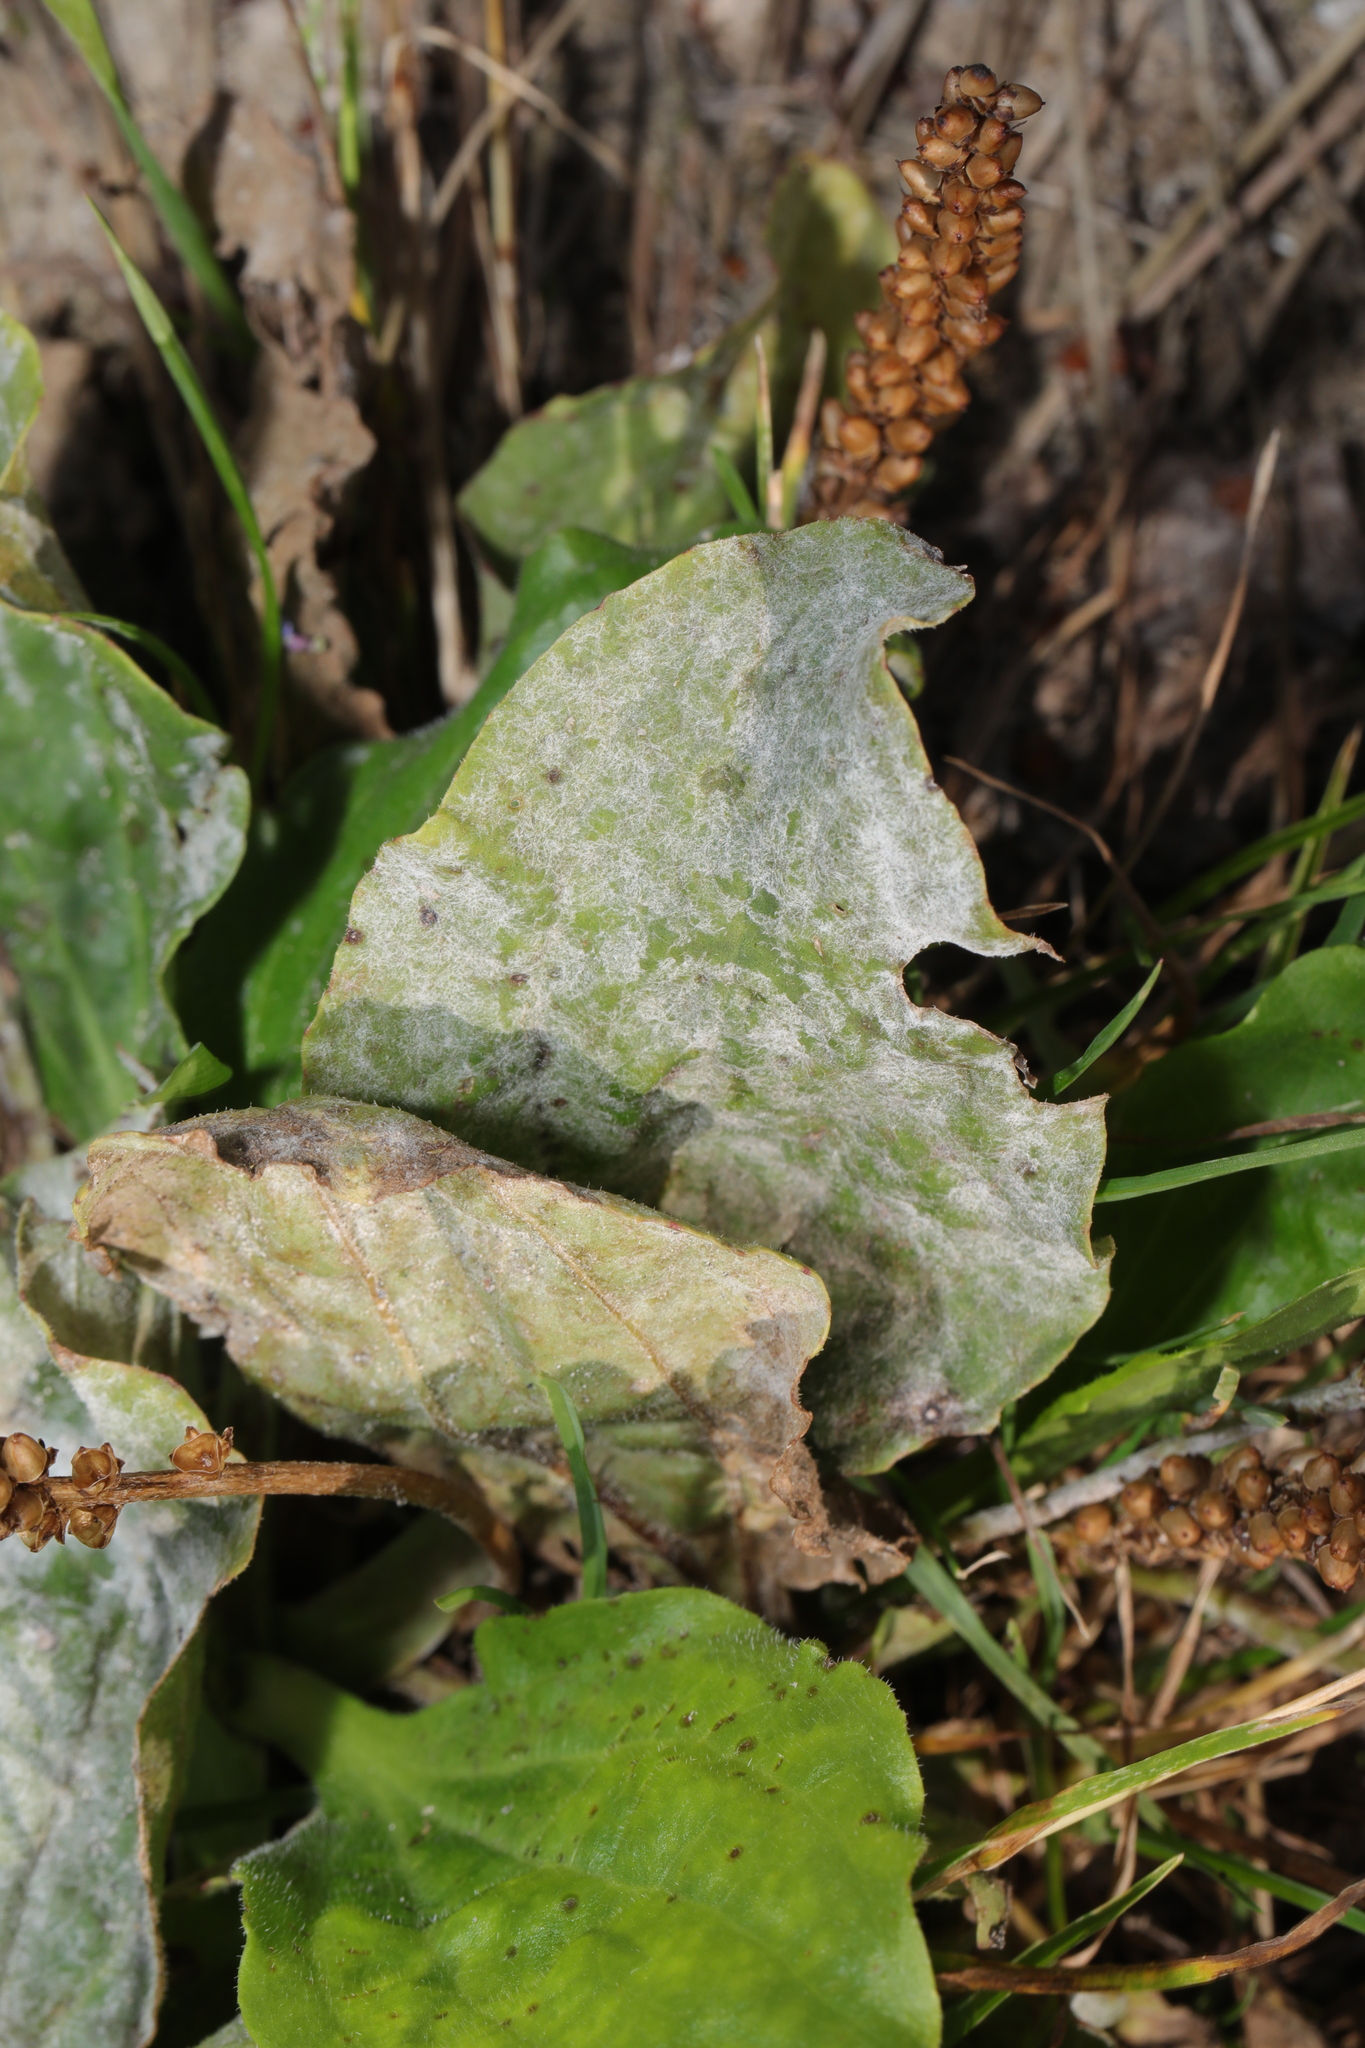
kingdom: Fungi
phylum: Ascomycota
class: Leotiomycetes
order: Helotiales
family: Erysiphaceae
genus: Golovinomyces
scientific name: Golovinomyces sordidus
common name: Plantain mildew
